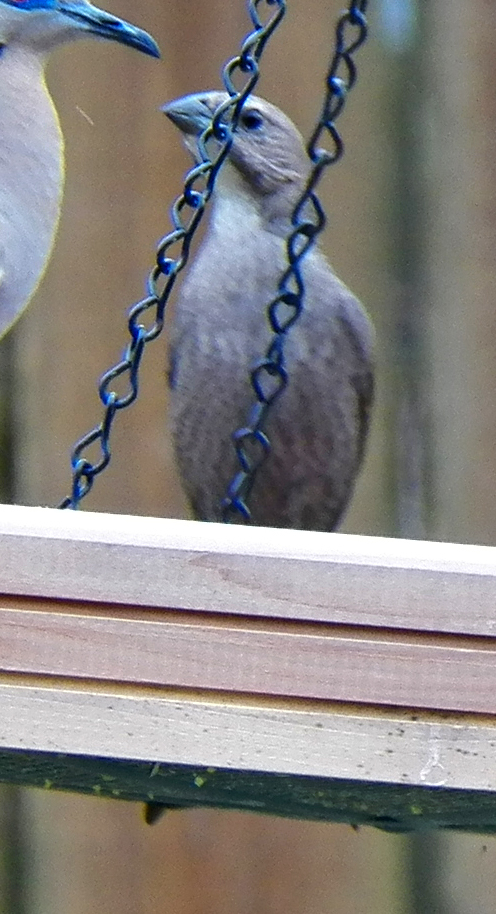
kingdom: Animalia
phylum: Chordata
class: Aves
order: Passeriformes
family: Icteridae
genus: Molothrus
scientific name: Molothrus ater
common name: Brown-headed cowbird
